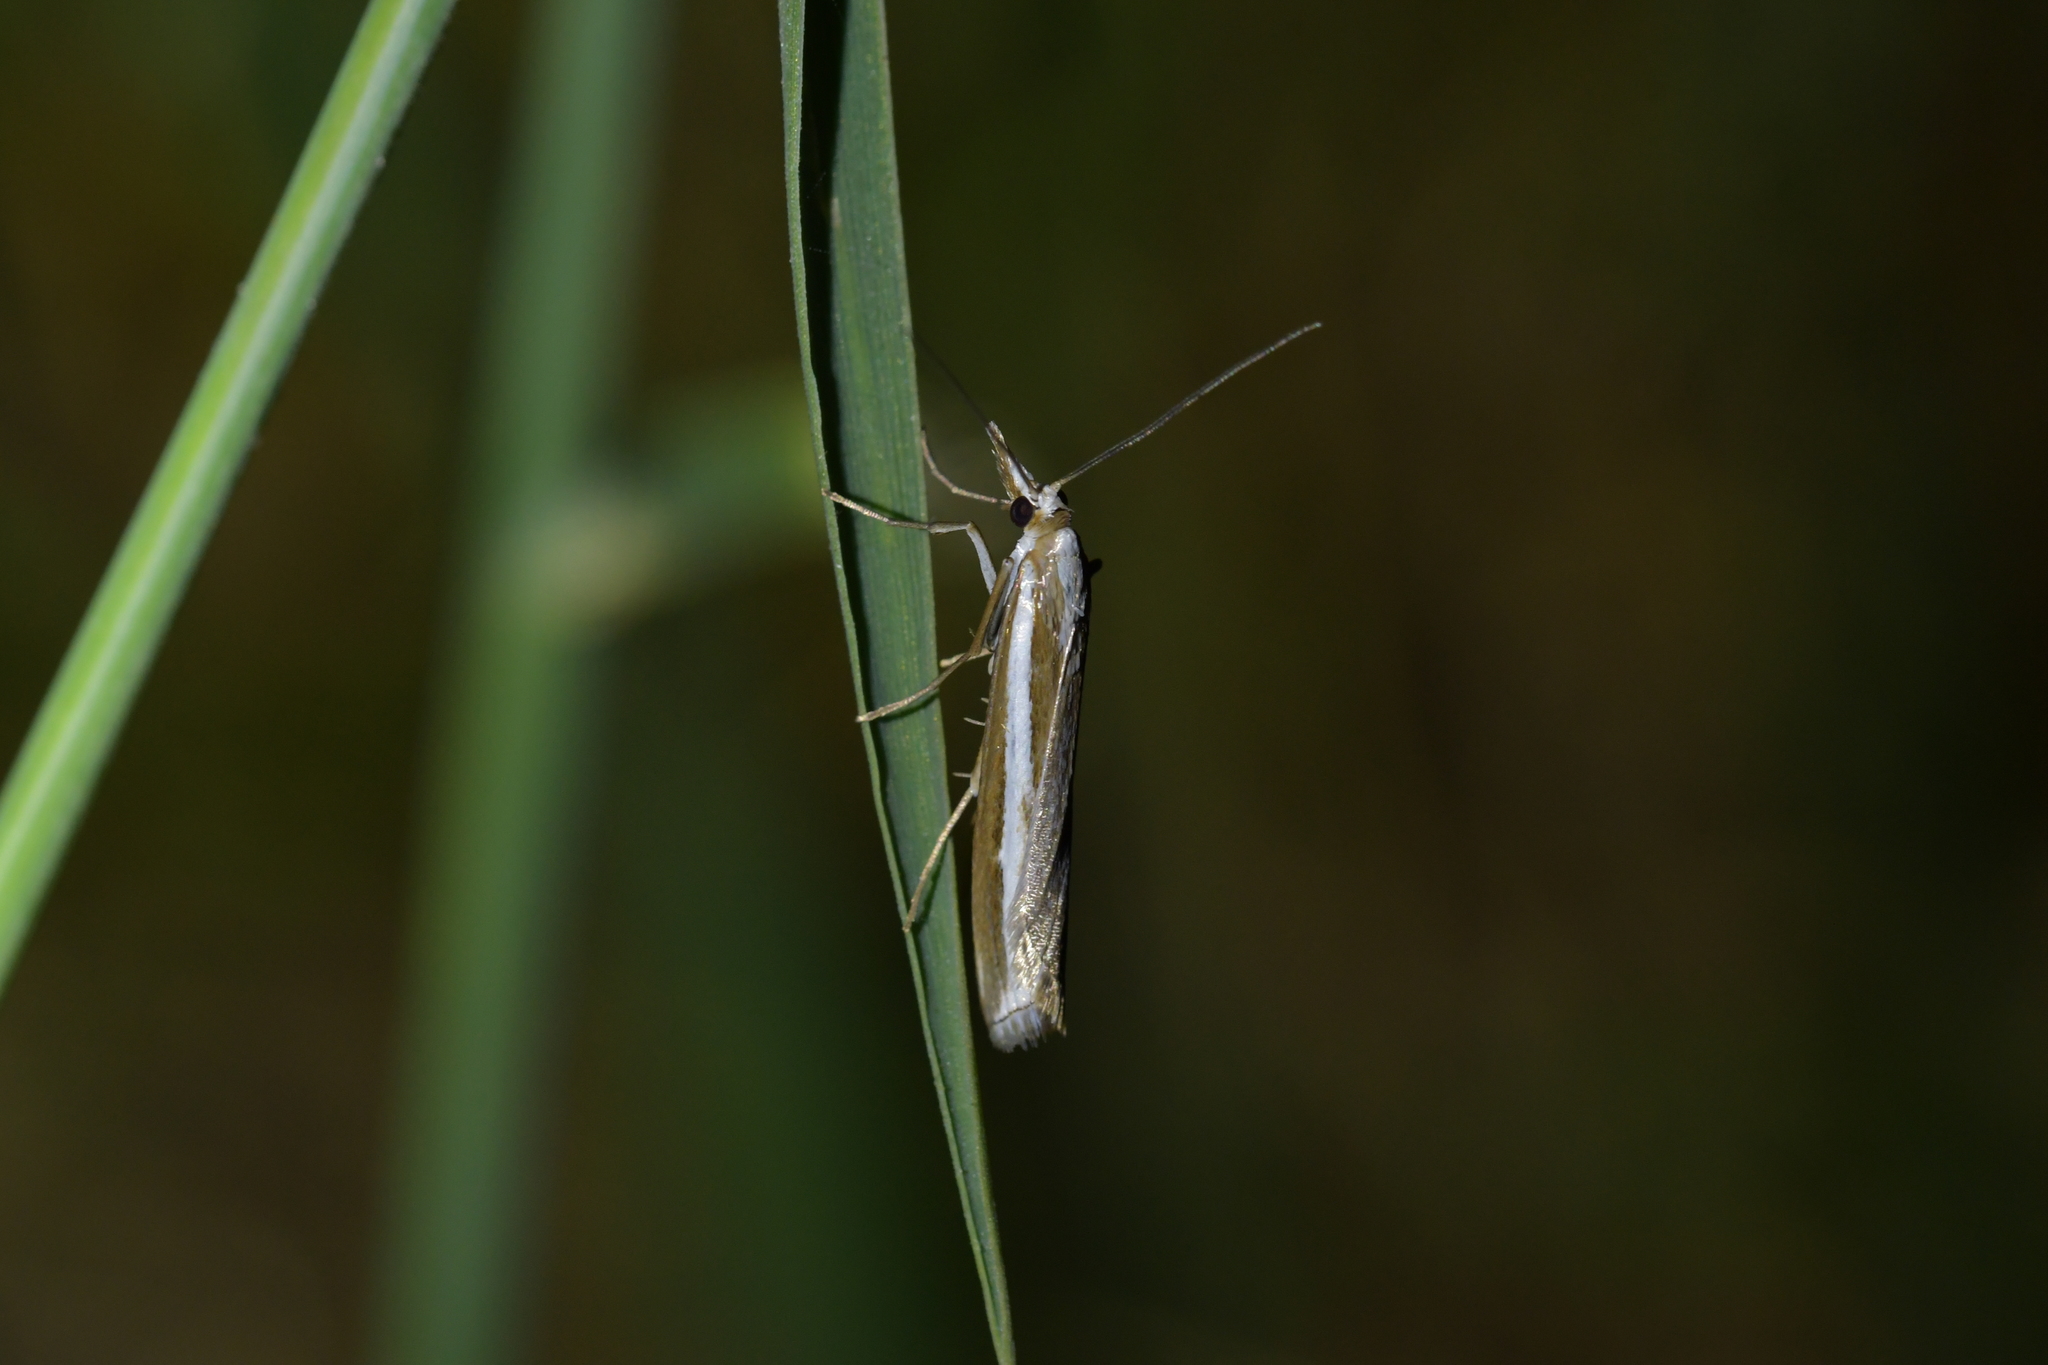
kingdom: Animalia
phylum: Arthropoda
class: Insecta
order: Lepidoptera
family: Crambidae
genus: Orocrambus
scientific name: Orocrambus vittellus
